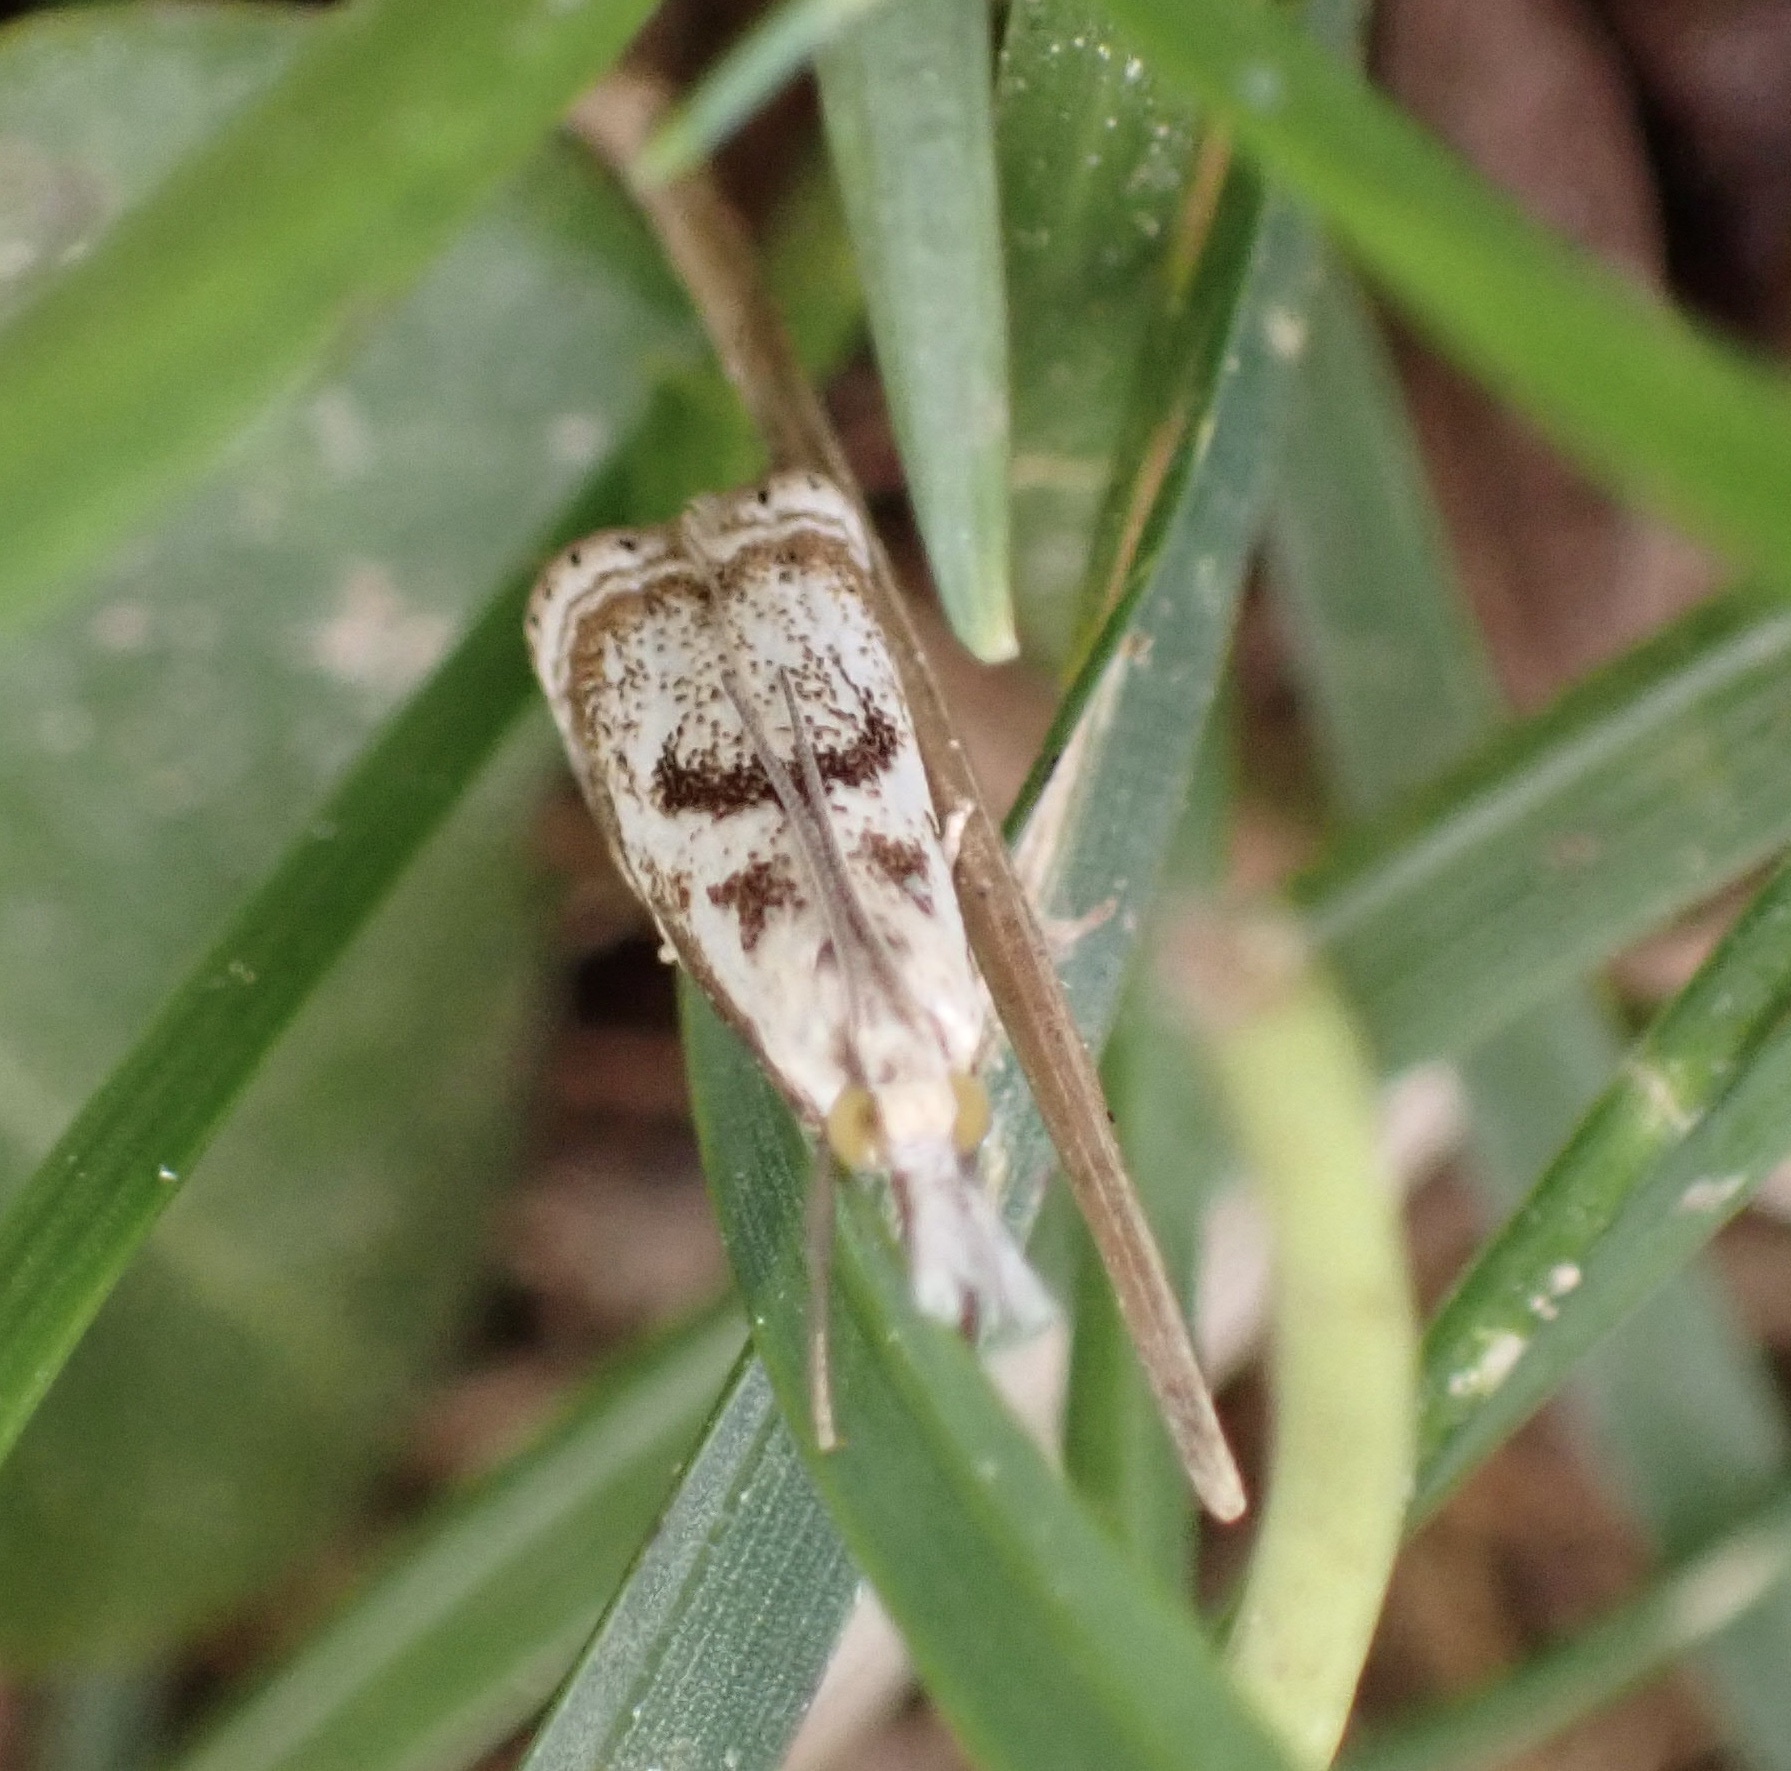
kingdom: Animalia
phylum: Arthropoda
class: Insecta
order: Lepidoptera
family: Crambidae
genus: Microcrambus
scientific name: Microcrambus elegans
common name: Elegant grass-veneer
